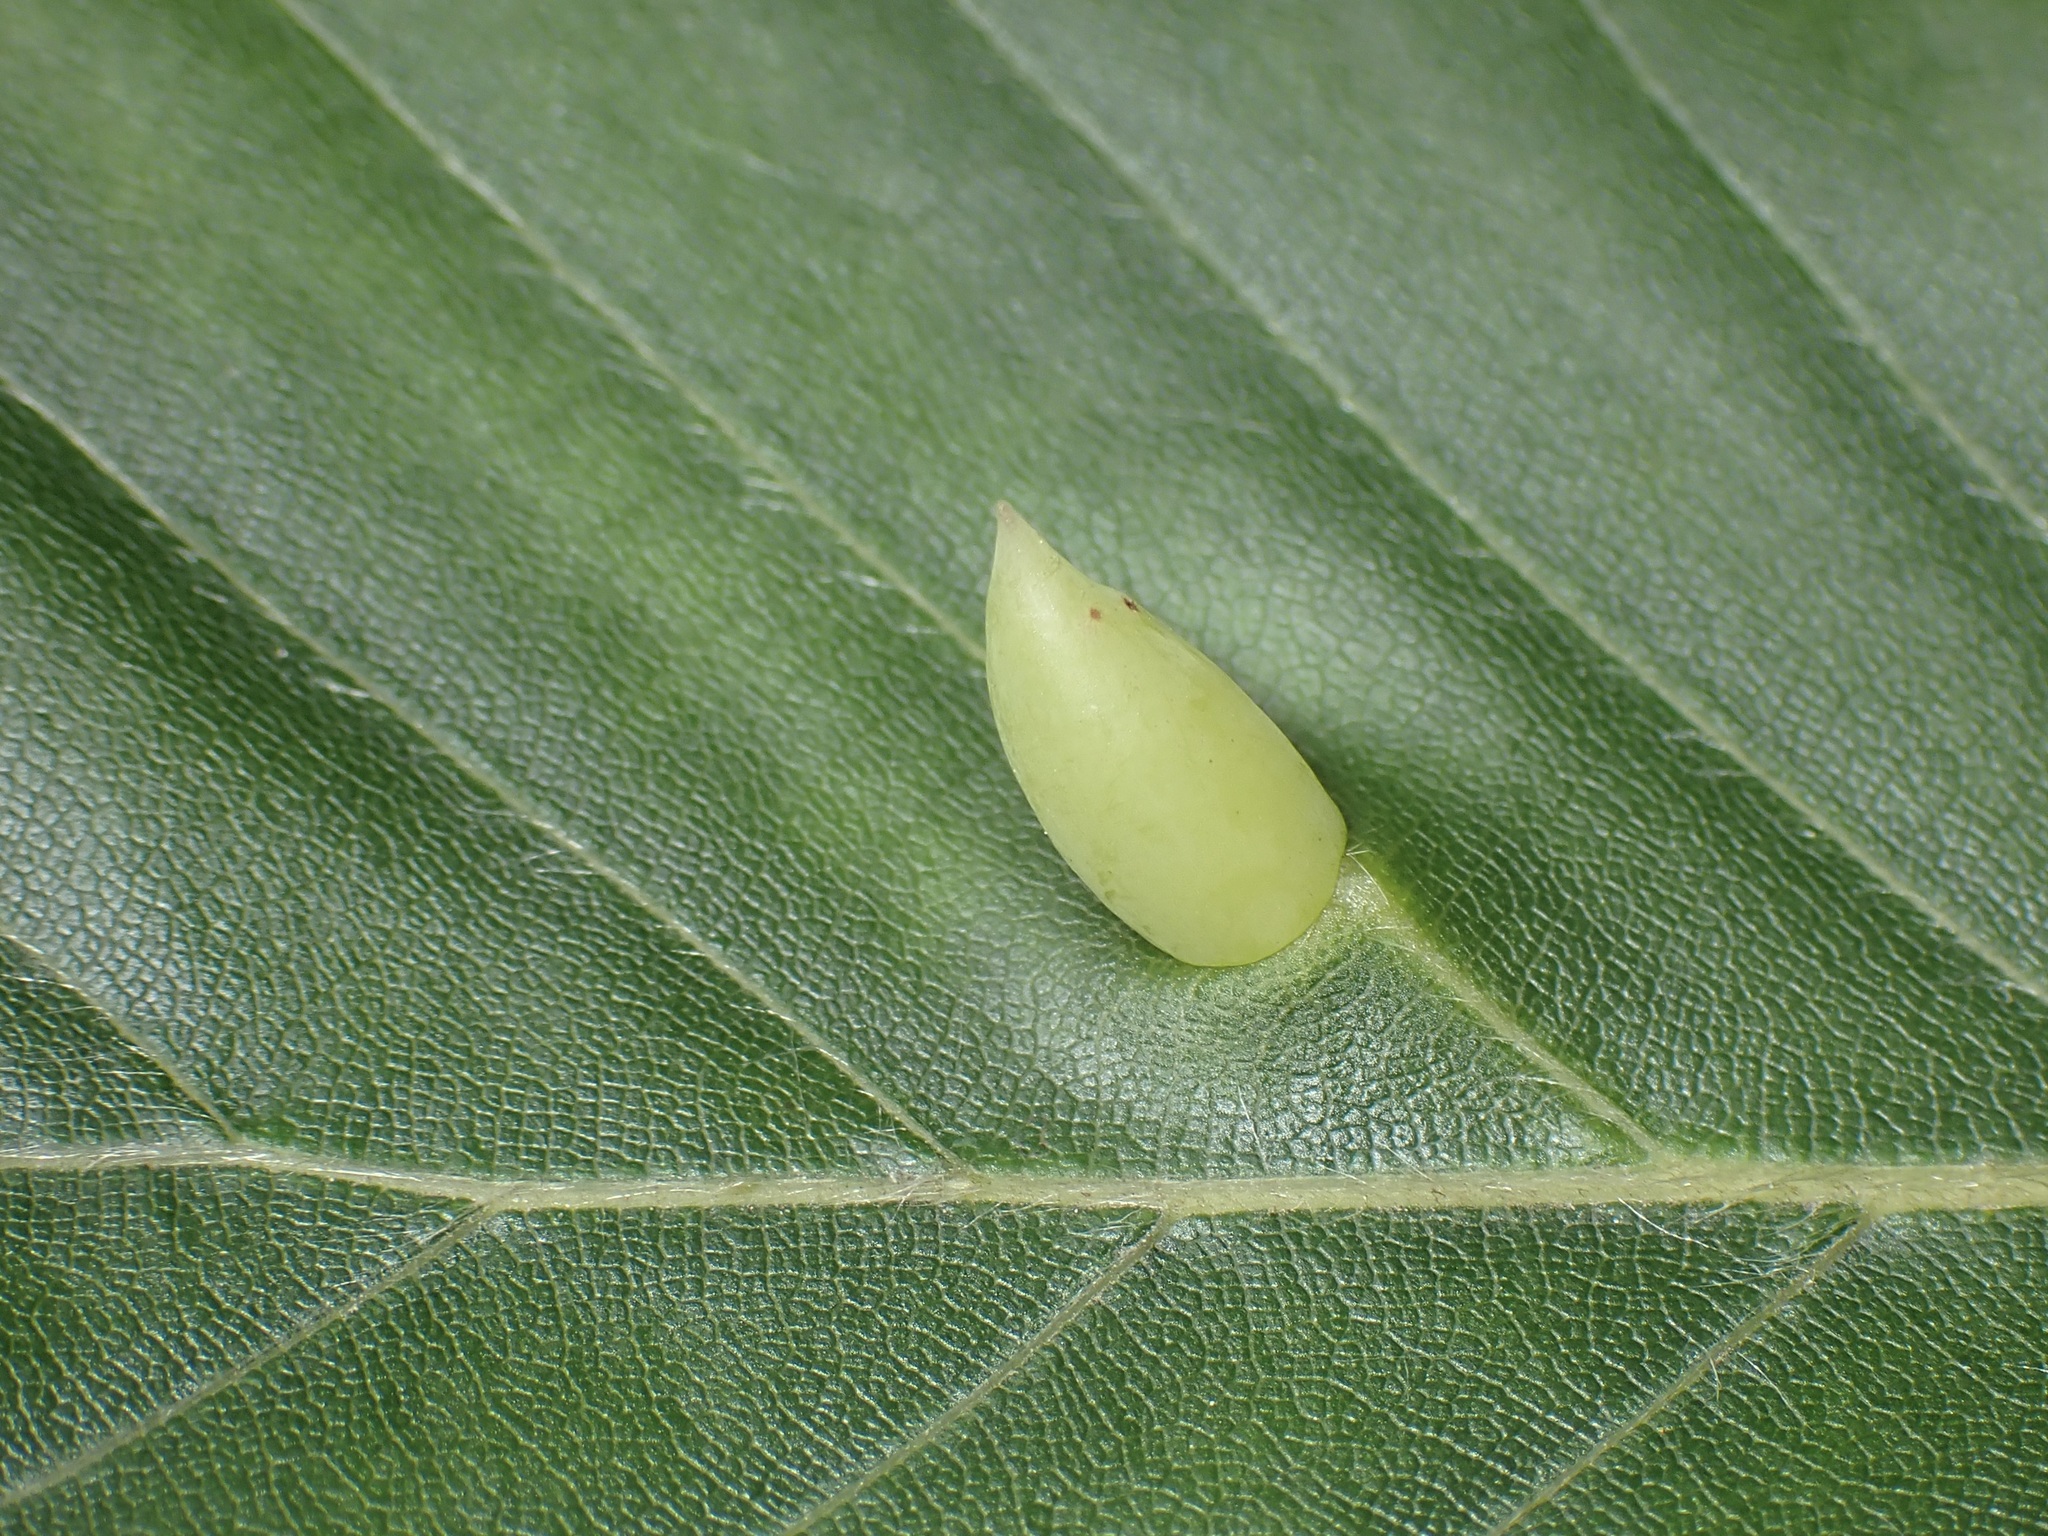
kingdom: Animalia
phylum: Arthropoda
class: Insecta
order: Diptera
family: Cecidomyiidae
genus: Mikiola
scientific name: Mikiola fagi
